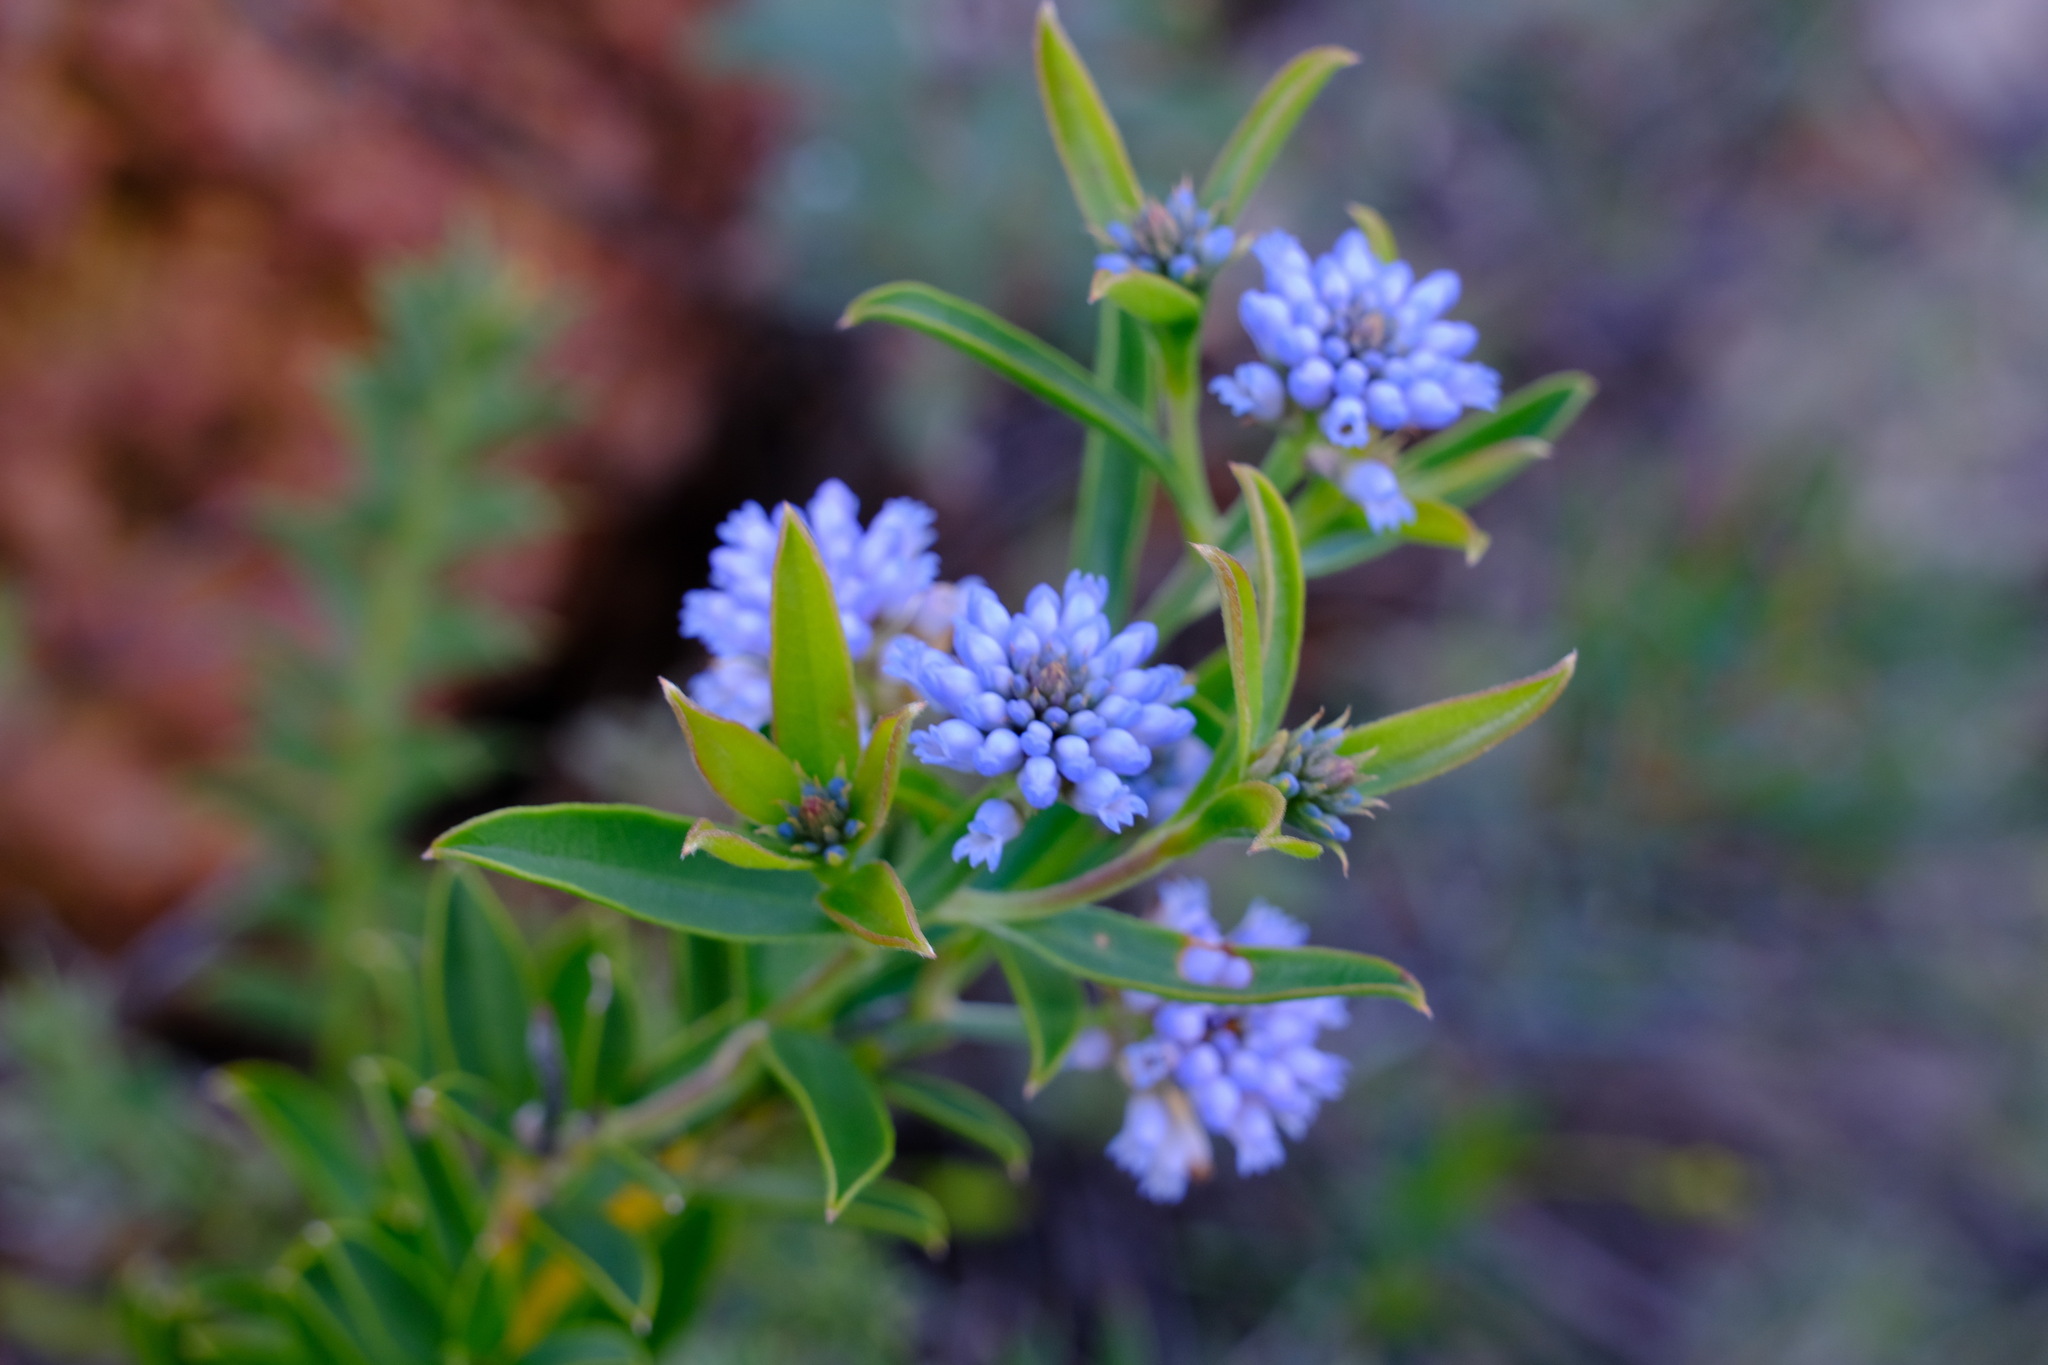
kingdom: Plantae
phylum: Tracheophyta
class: Magnoliopsida
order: Proteales
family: Proteaceae
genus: Conospermum
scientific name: Conospermum nervosum
